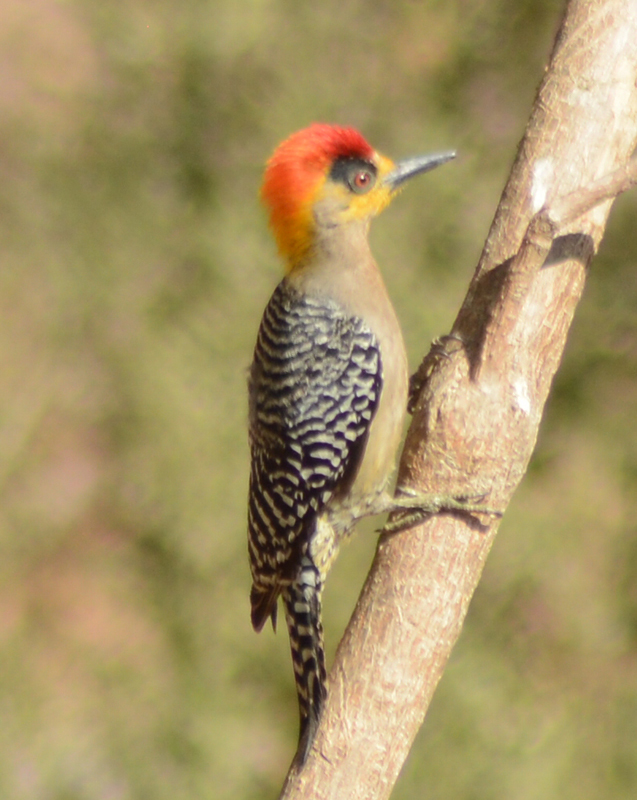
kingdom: Animalia
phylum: Chordata
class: Aves
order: Piciformes
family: Picidae
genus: Melanerpes
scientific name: Melanerpes chrysogenys
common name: Golden-cheeked woodpecker
